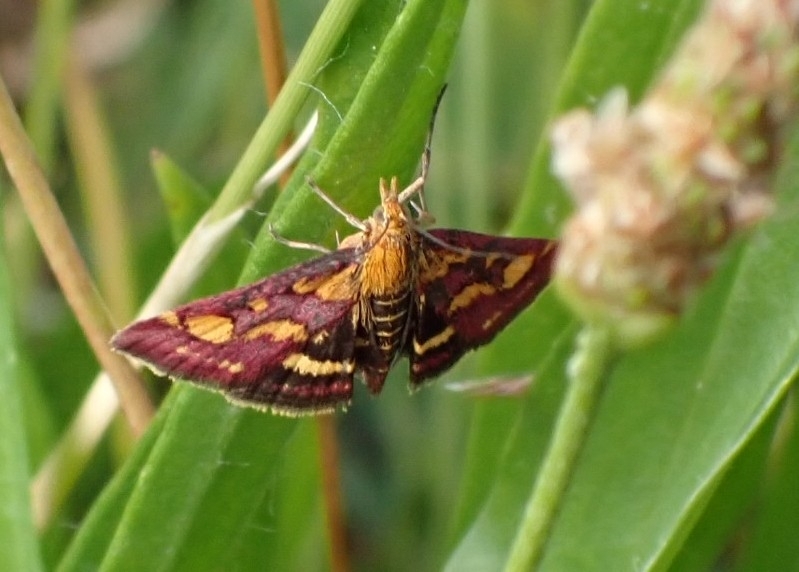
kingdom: Animalia
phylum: Arthropoda
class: Insecta
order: Lepidoptera
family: Crambidae
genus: Pyrausta
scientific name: Pyrausta purpuralis
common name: Common purple & gold
